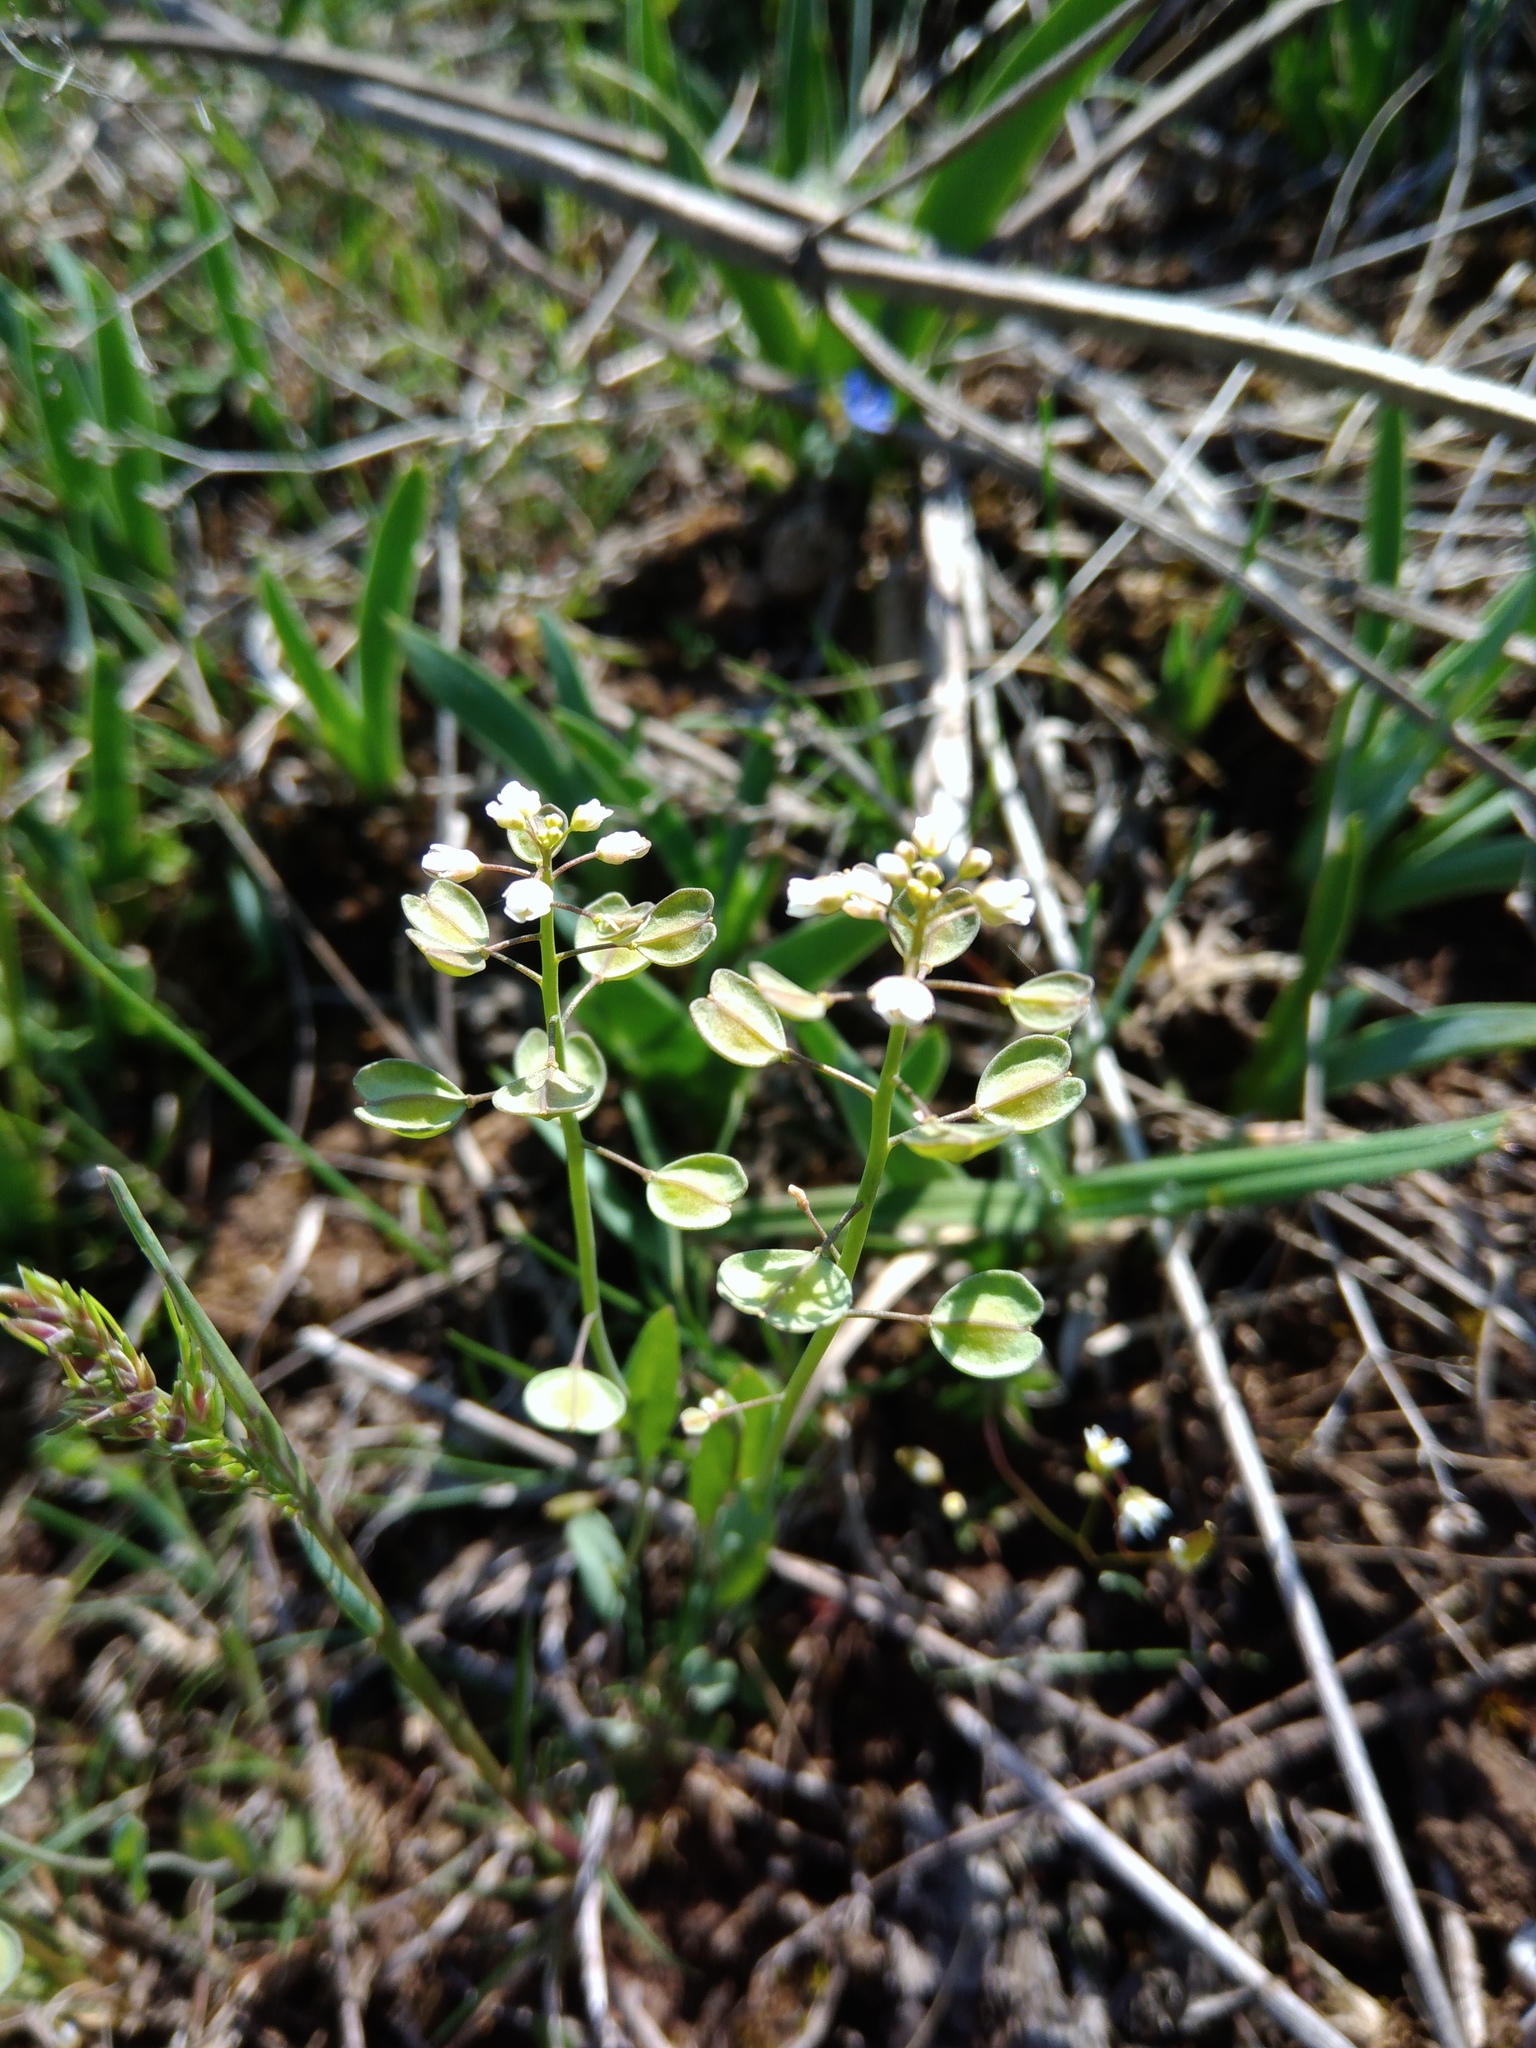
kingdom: Plantae
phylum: Tracheophyta
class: Magnoliopsida
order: Brassicales
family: Brassicaceae
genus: Noccaea
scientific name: Noccaea perfoliata
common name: Perfoliate pennycress
